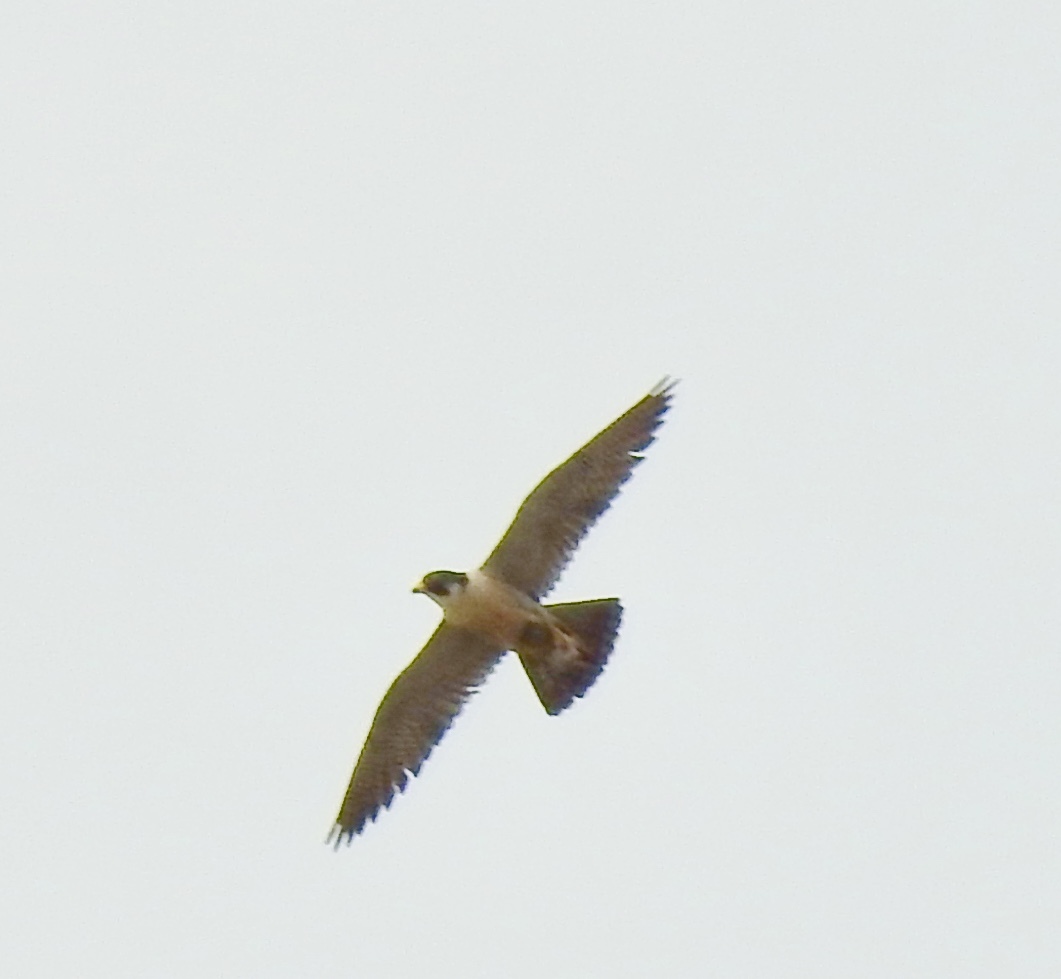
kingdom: Animalia
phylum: Chordata
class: Aves
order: Falconiformes
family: Falconidae
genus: Falco
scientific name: Falco peregrinus
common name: Peregrine falcon
